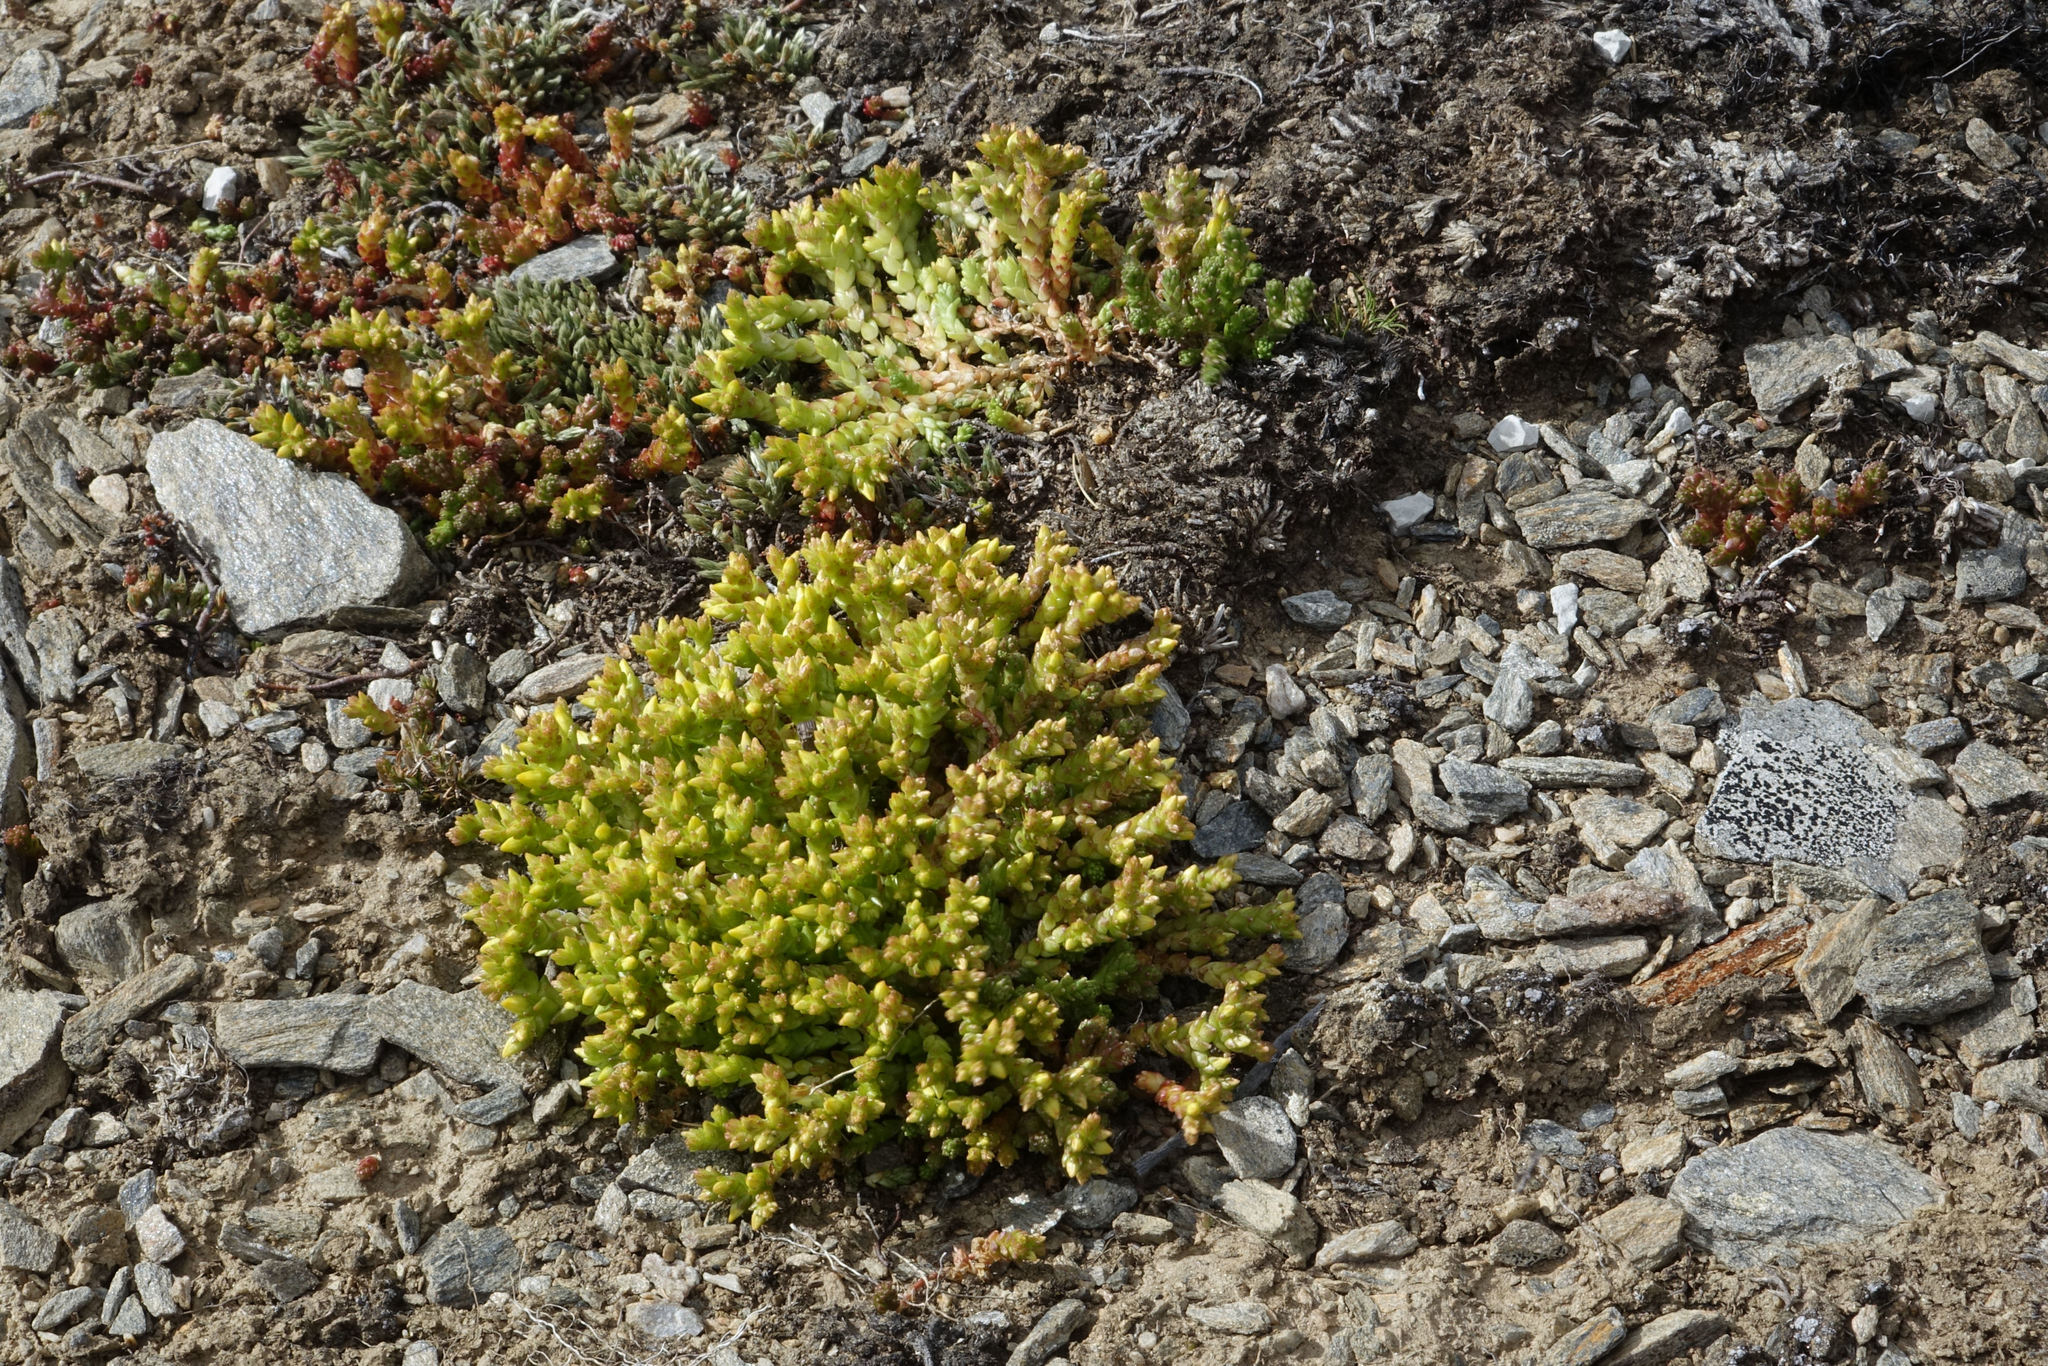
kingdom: Plantae
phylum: Tracheophyta
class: Magnoliopsida
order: Saxifragales
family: Crassulaceae
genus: Sedum
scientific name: Sedum acre
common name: Biting stonecrop
